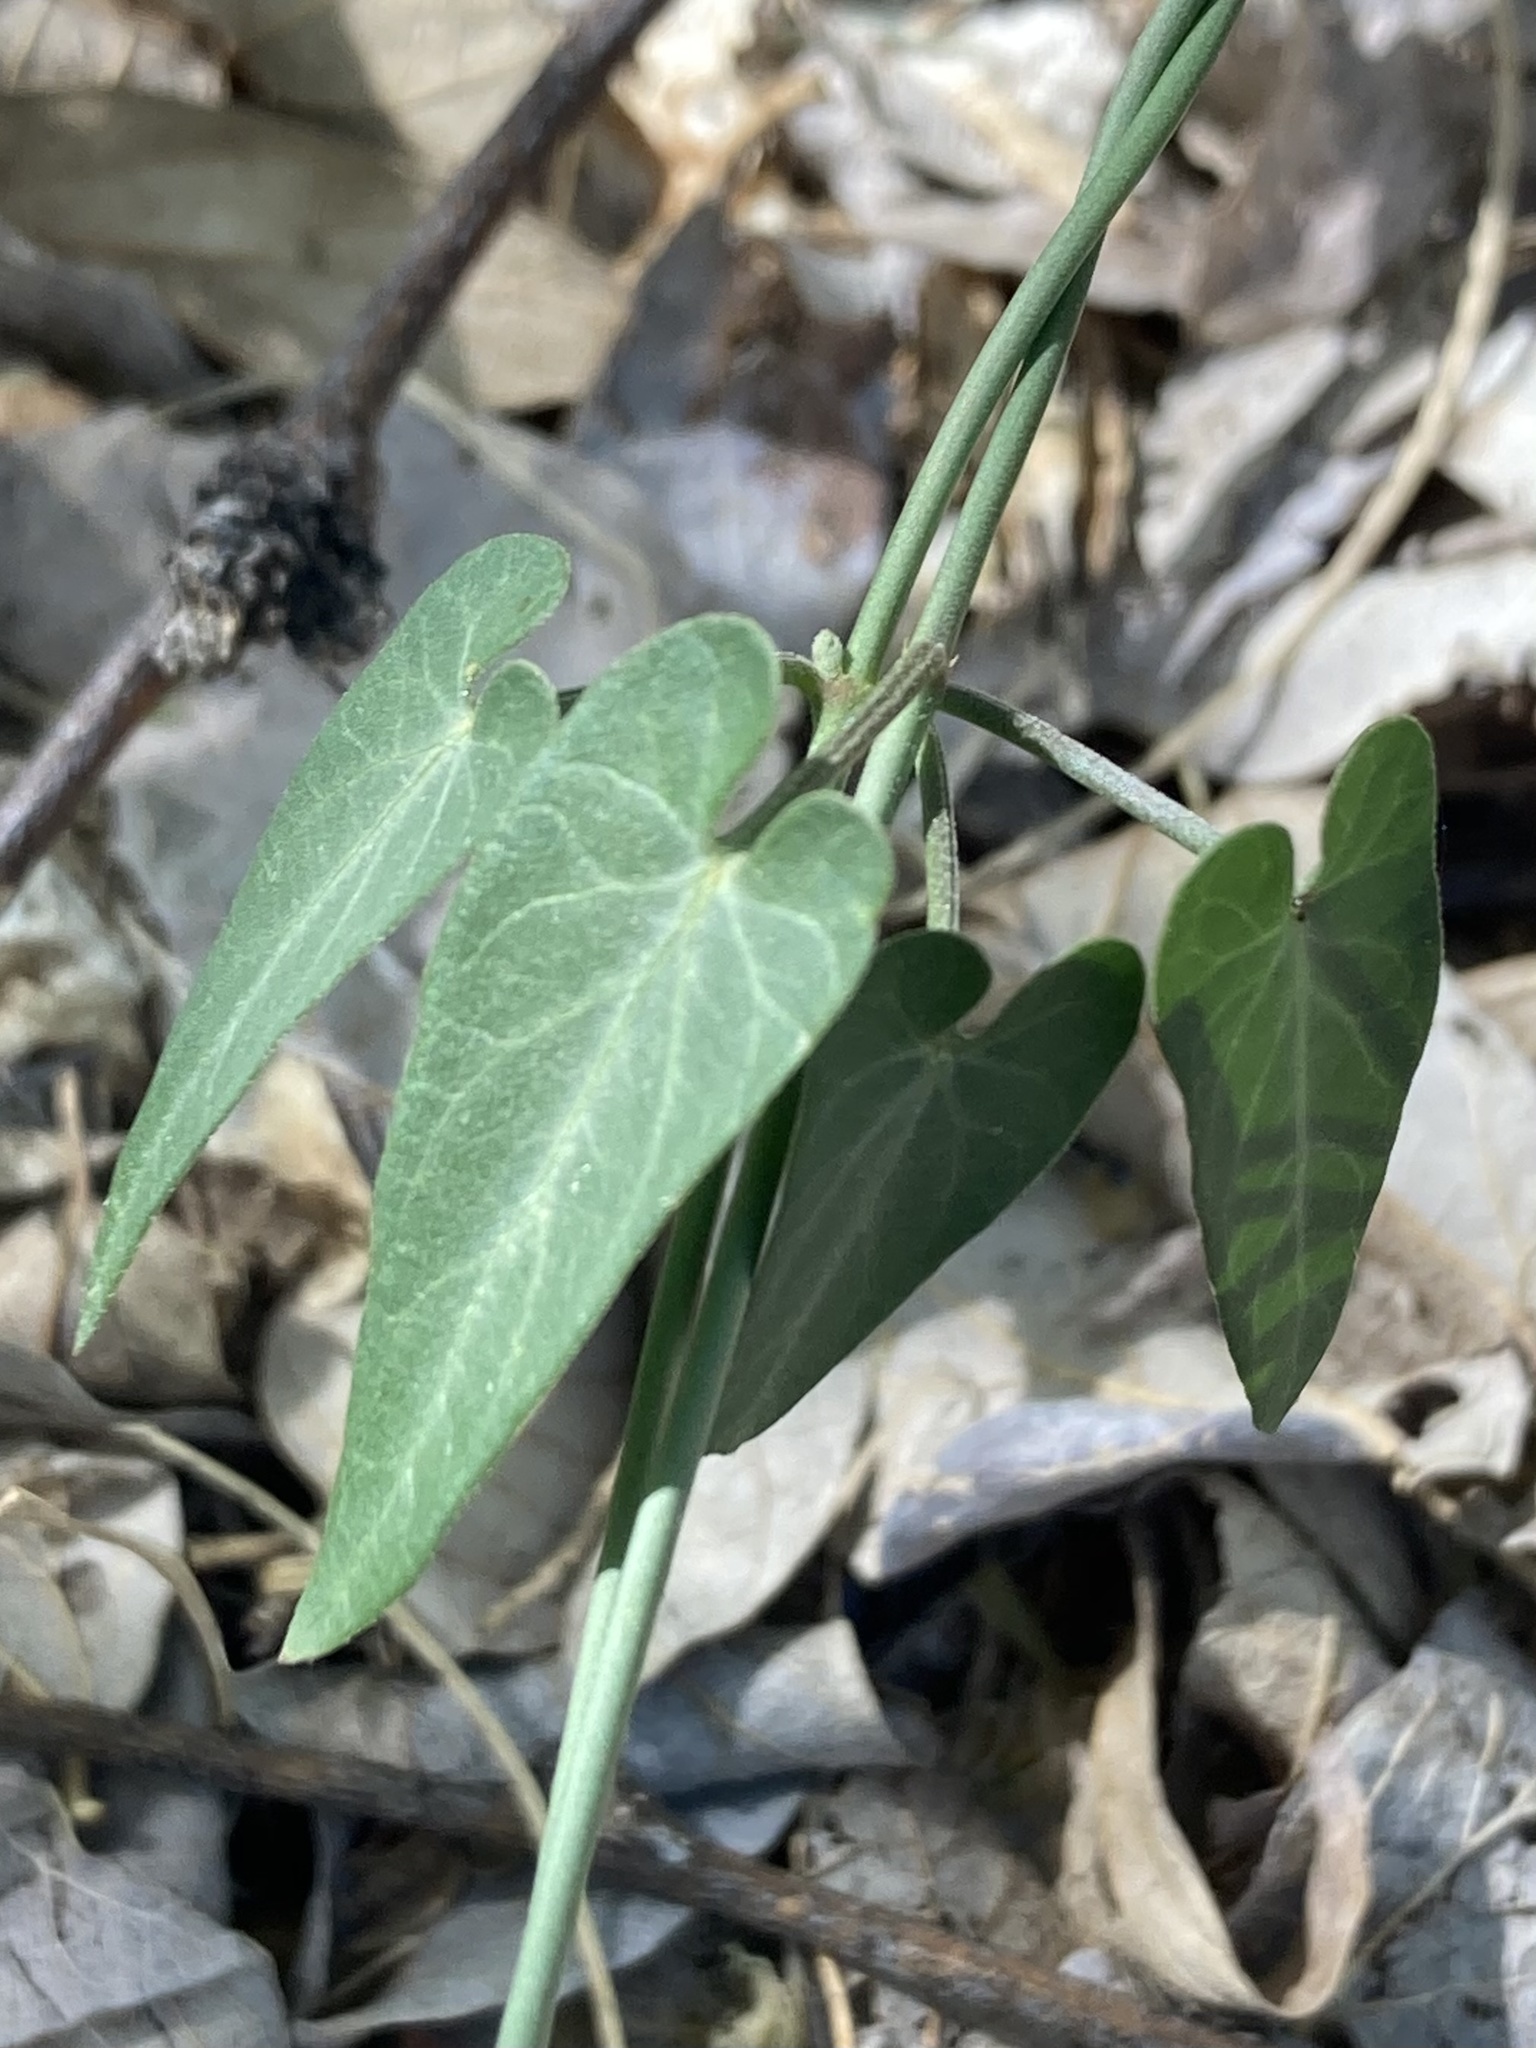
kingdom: Plantae
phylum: Tracheophyta
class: Magnoliopsida
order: Gentianales
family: Apocynaceae
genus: Funastrum
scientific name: Funastrum cynanchoides
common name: Climbing-milkweed
